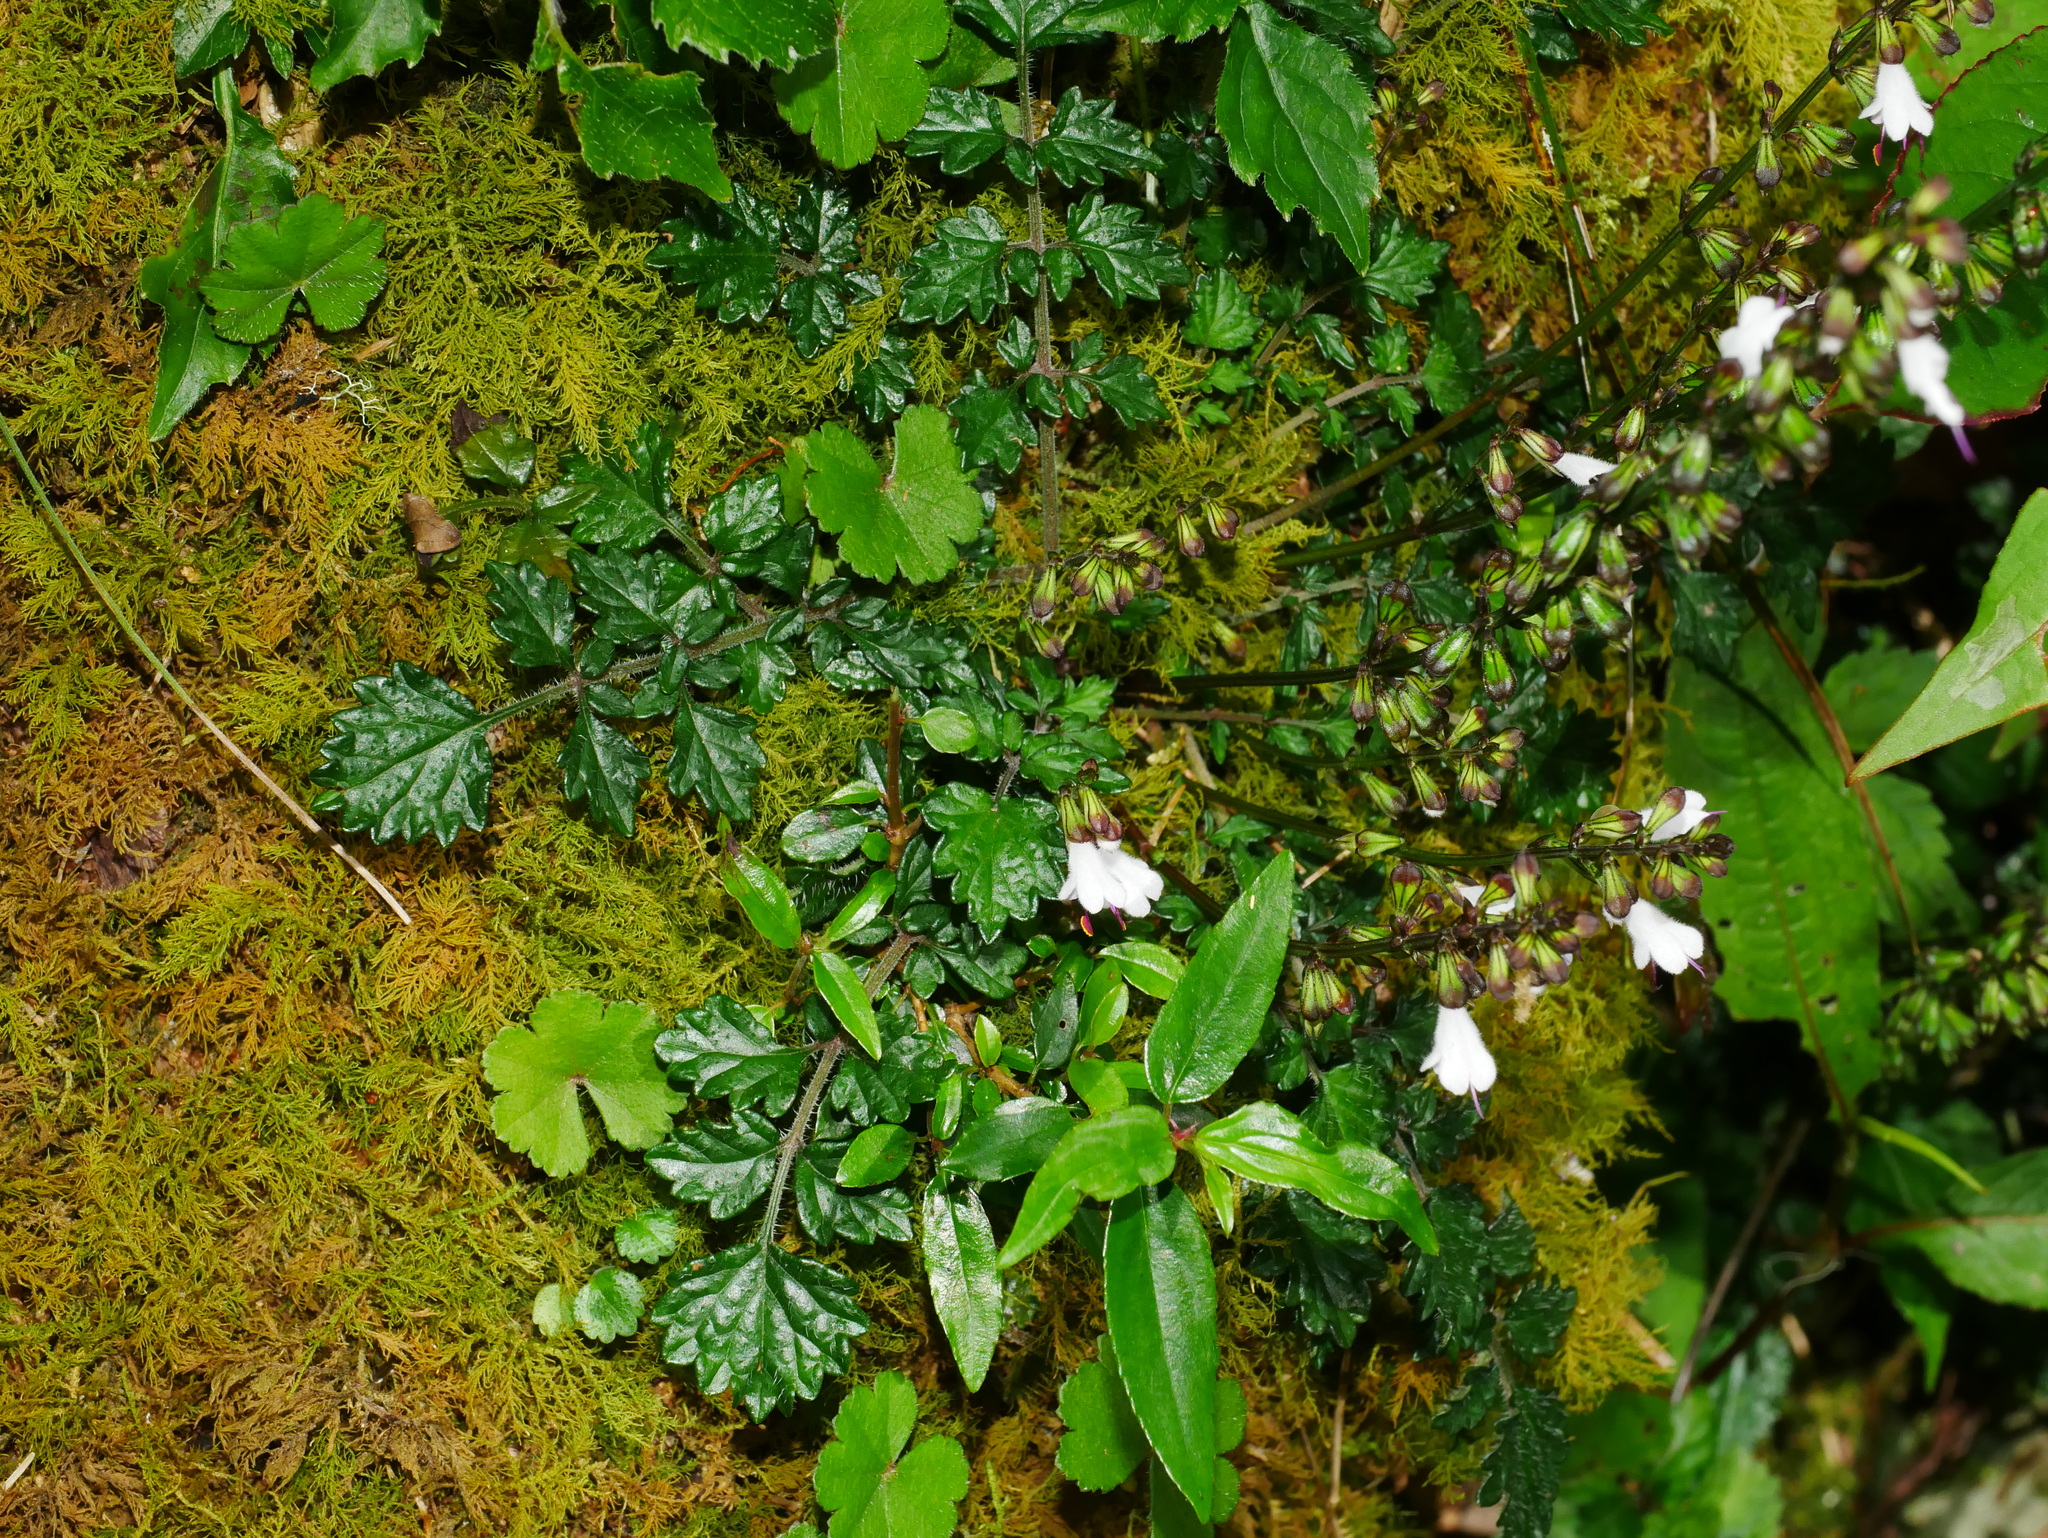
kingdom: Plantae
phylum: Tracheophyta
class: Magnoliopsida
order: Lamiales
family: Lamiaceae
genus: Salvia
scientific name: Salvia scapiformis
